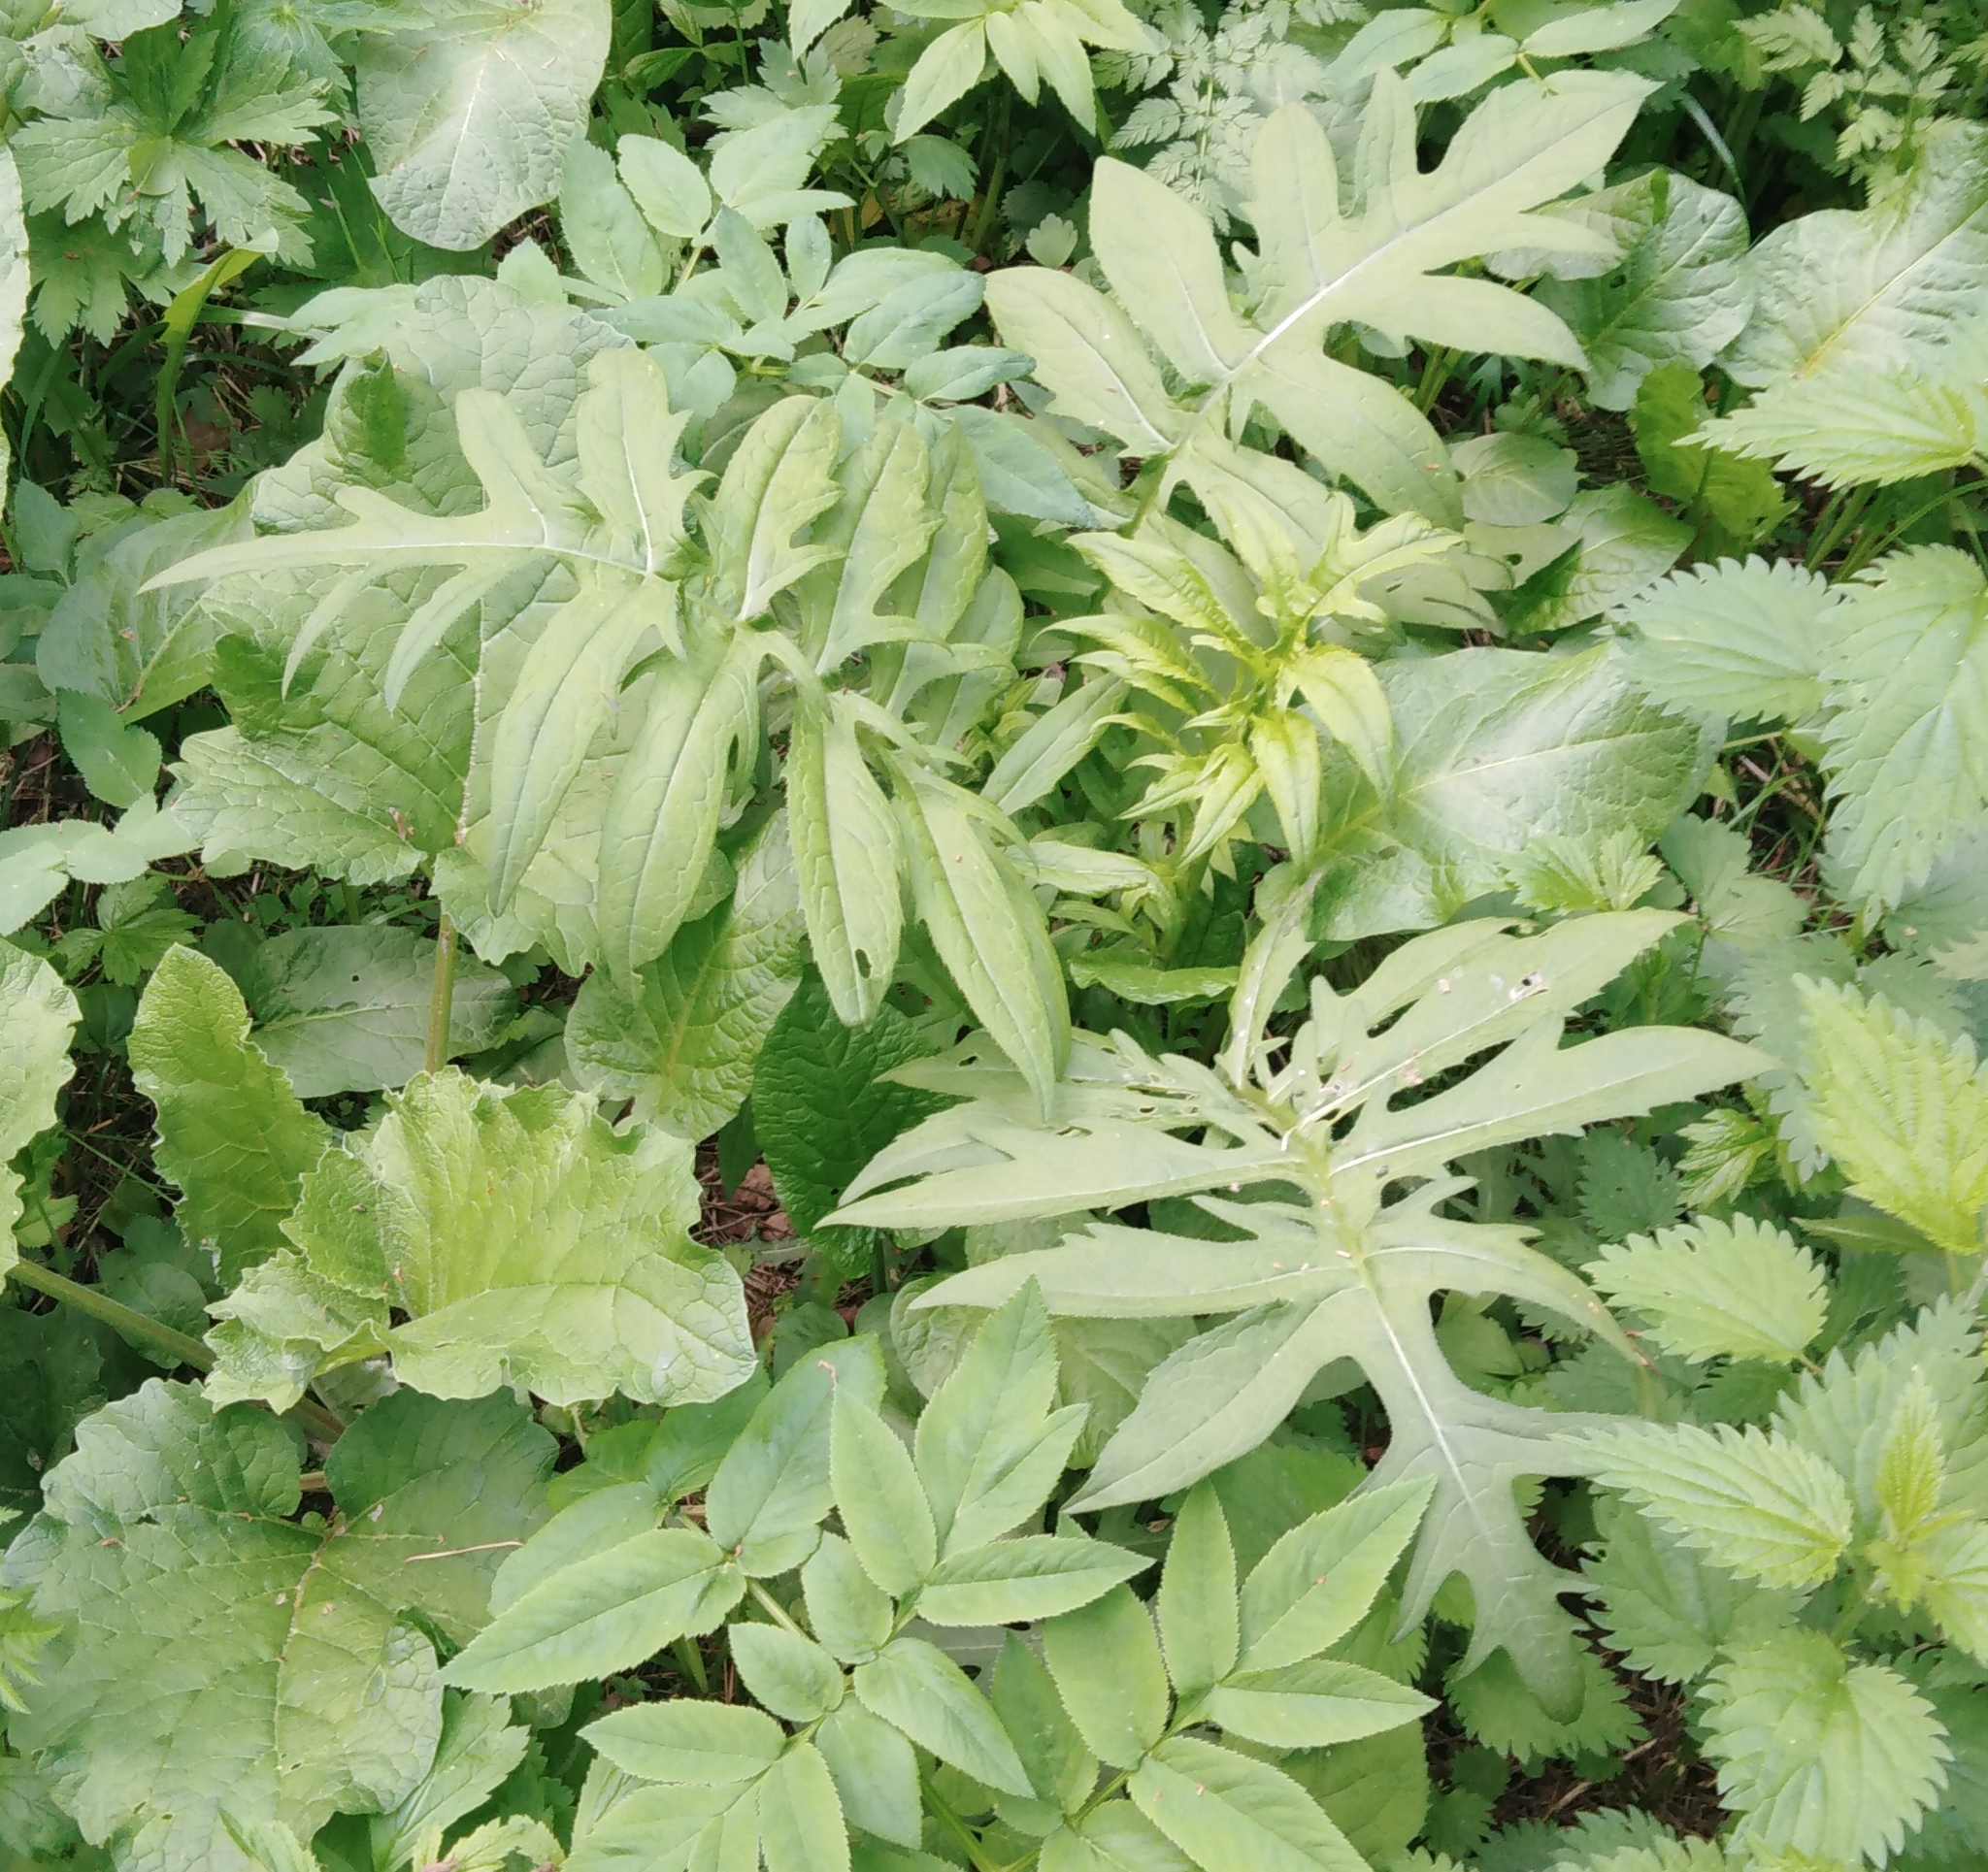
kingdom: Plantae
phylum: Tracheophyta
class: Magnoliopsida
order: Asterales
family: Asteraceae
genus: Cirsium
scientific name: Cirsium oleraceum
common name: Cabbage thistle
